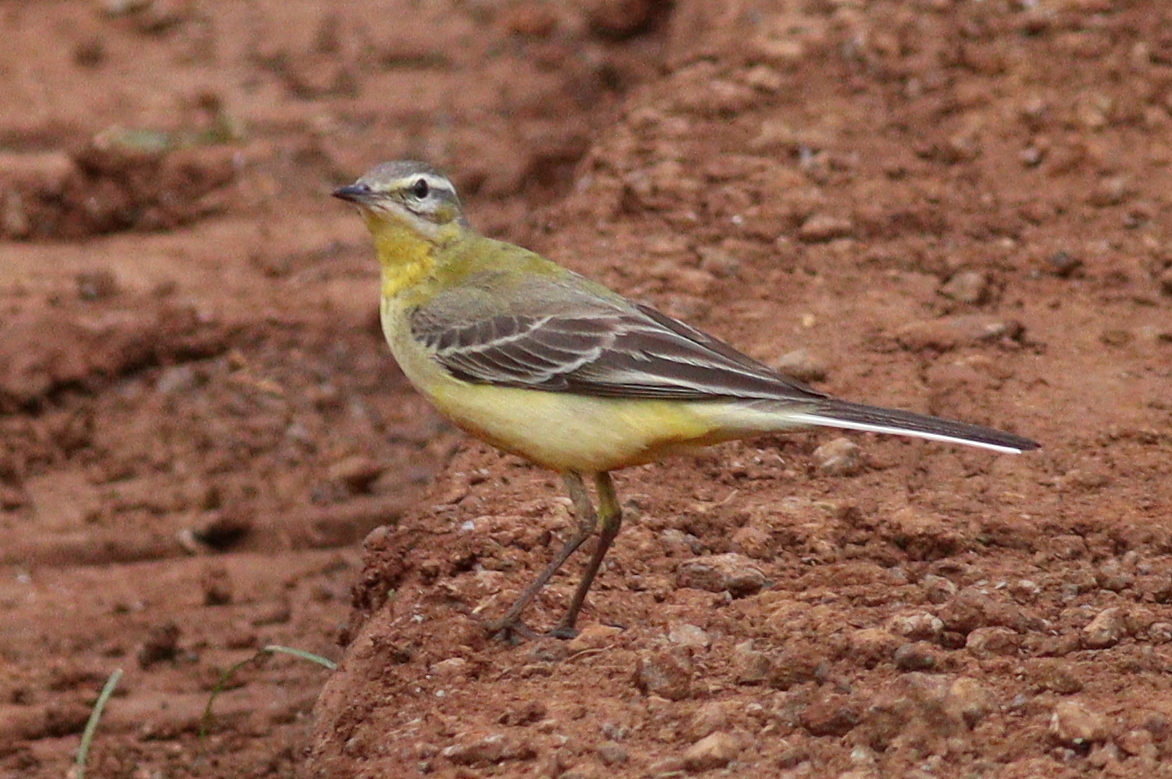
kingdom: Animalia
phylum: Chordata
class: Aves
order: Passeriformes
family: Motacillidae
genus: Motacilla
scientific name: Motacilla flava
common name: Western yellow wagtail
